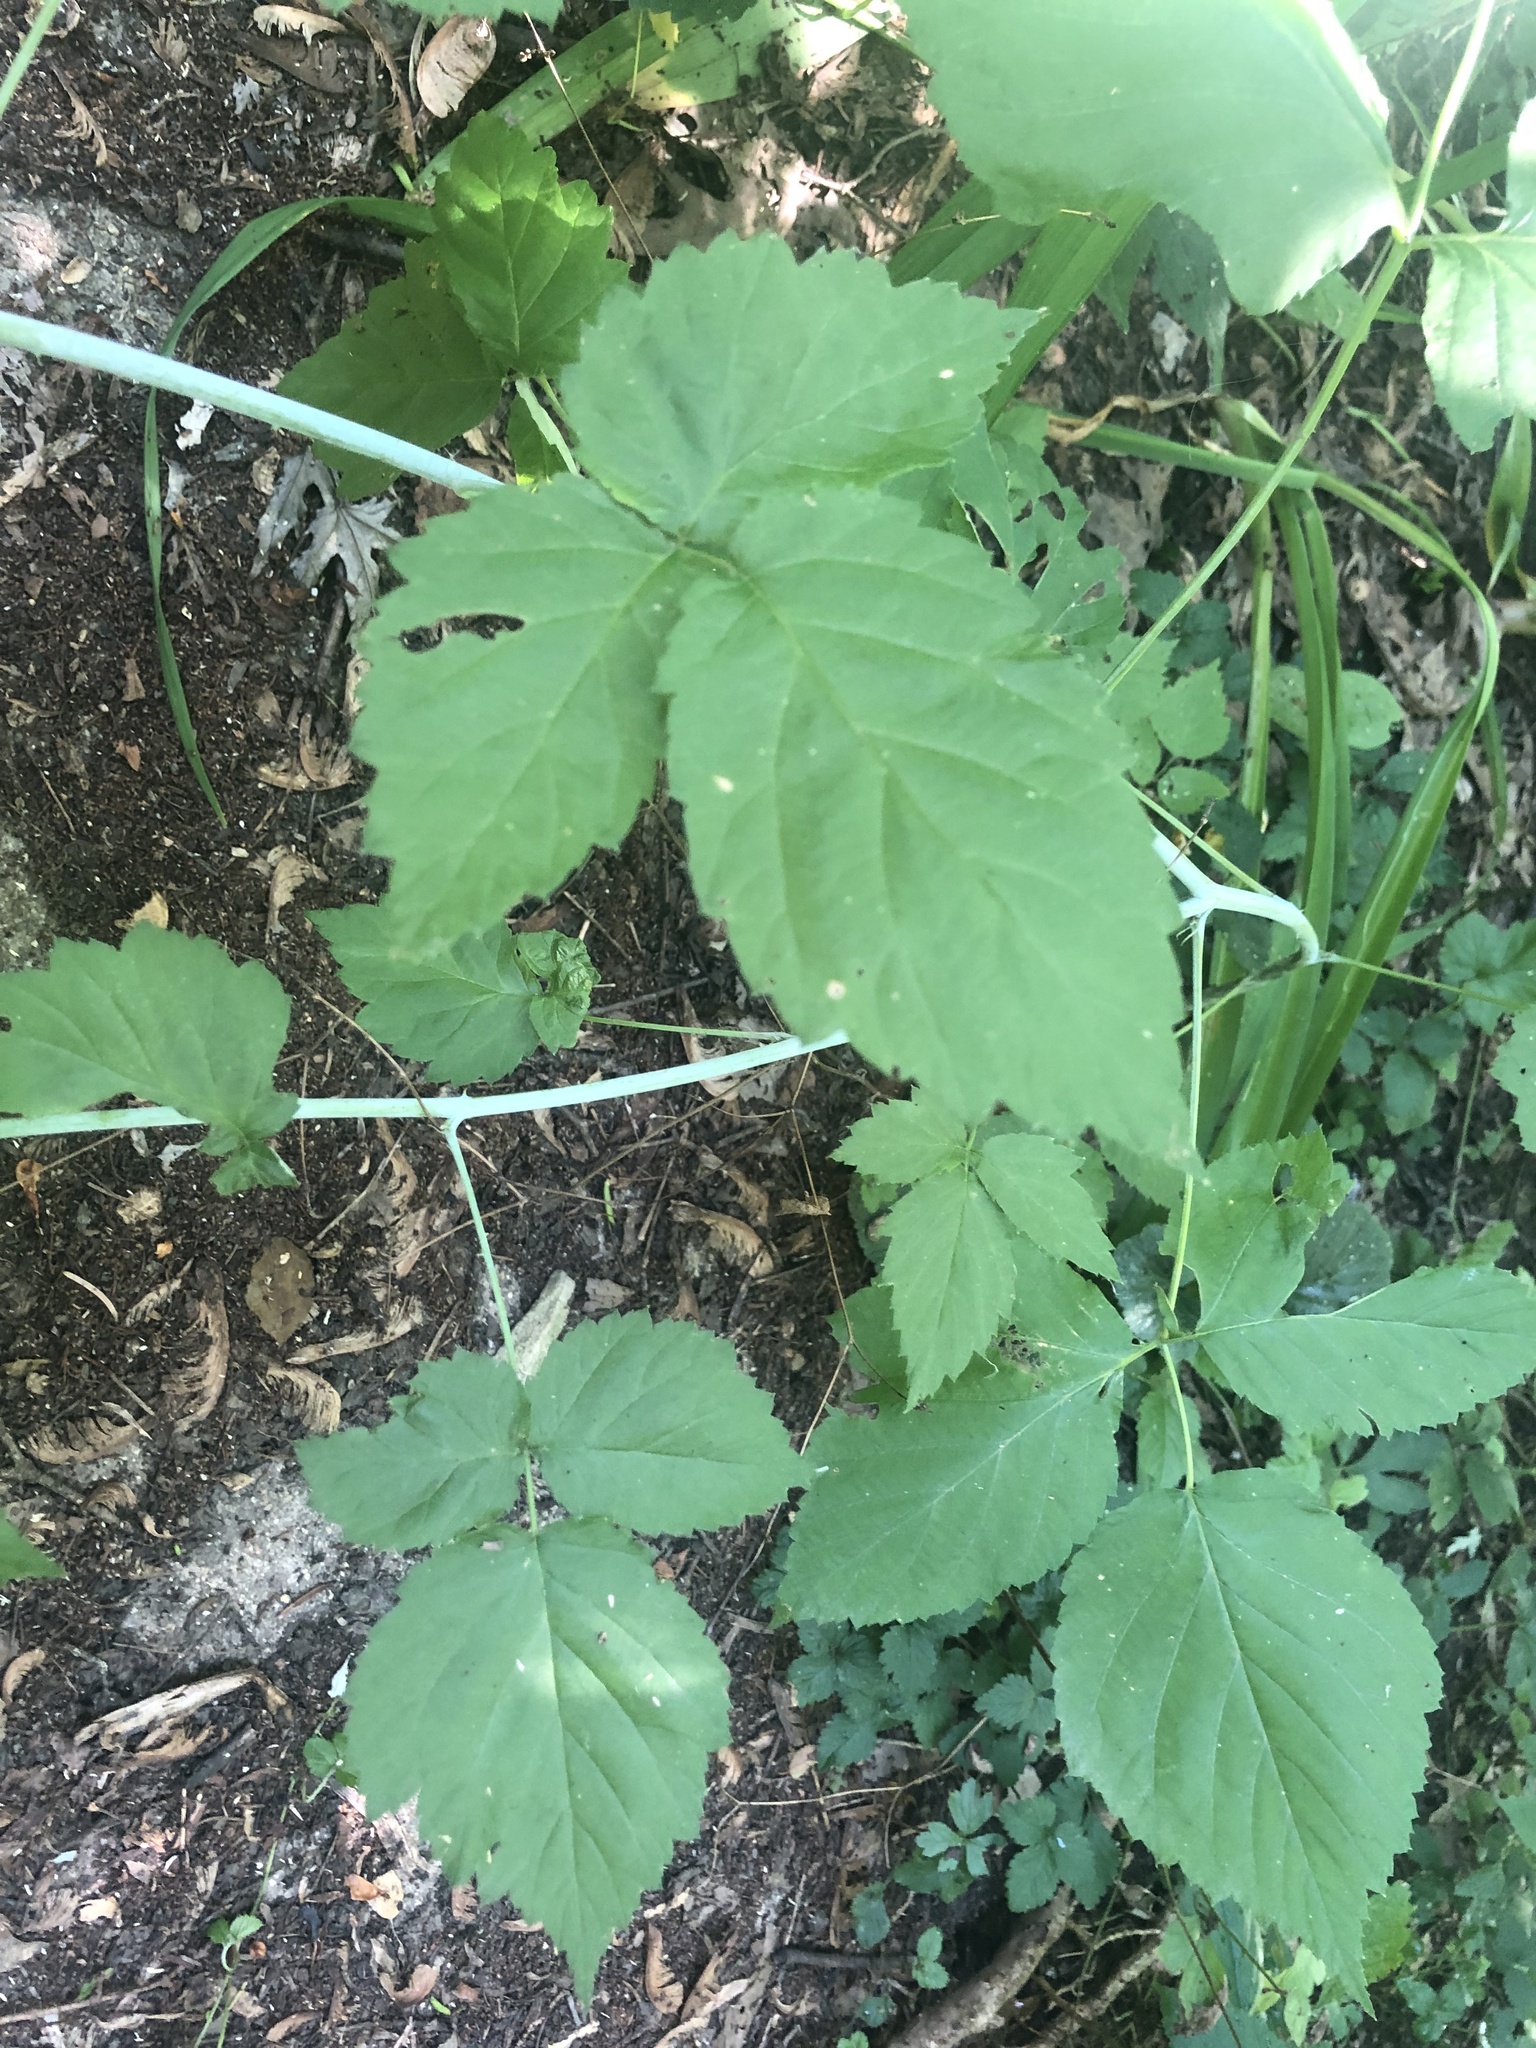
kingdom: Plantae
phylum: Tracheophyta
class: Magnoliopsida
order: Rosales
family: Rosaceae
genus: Rubus
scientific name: Rubus occidentalis
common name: Black raspberry
